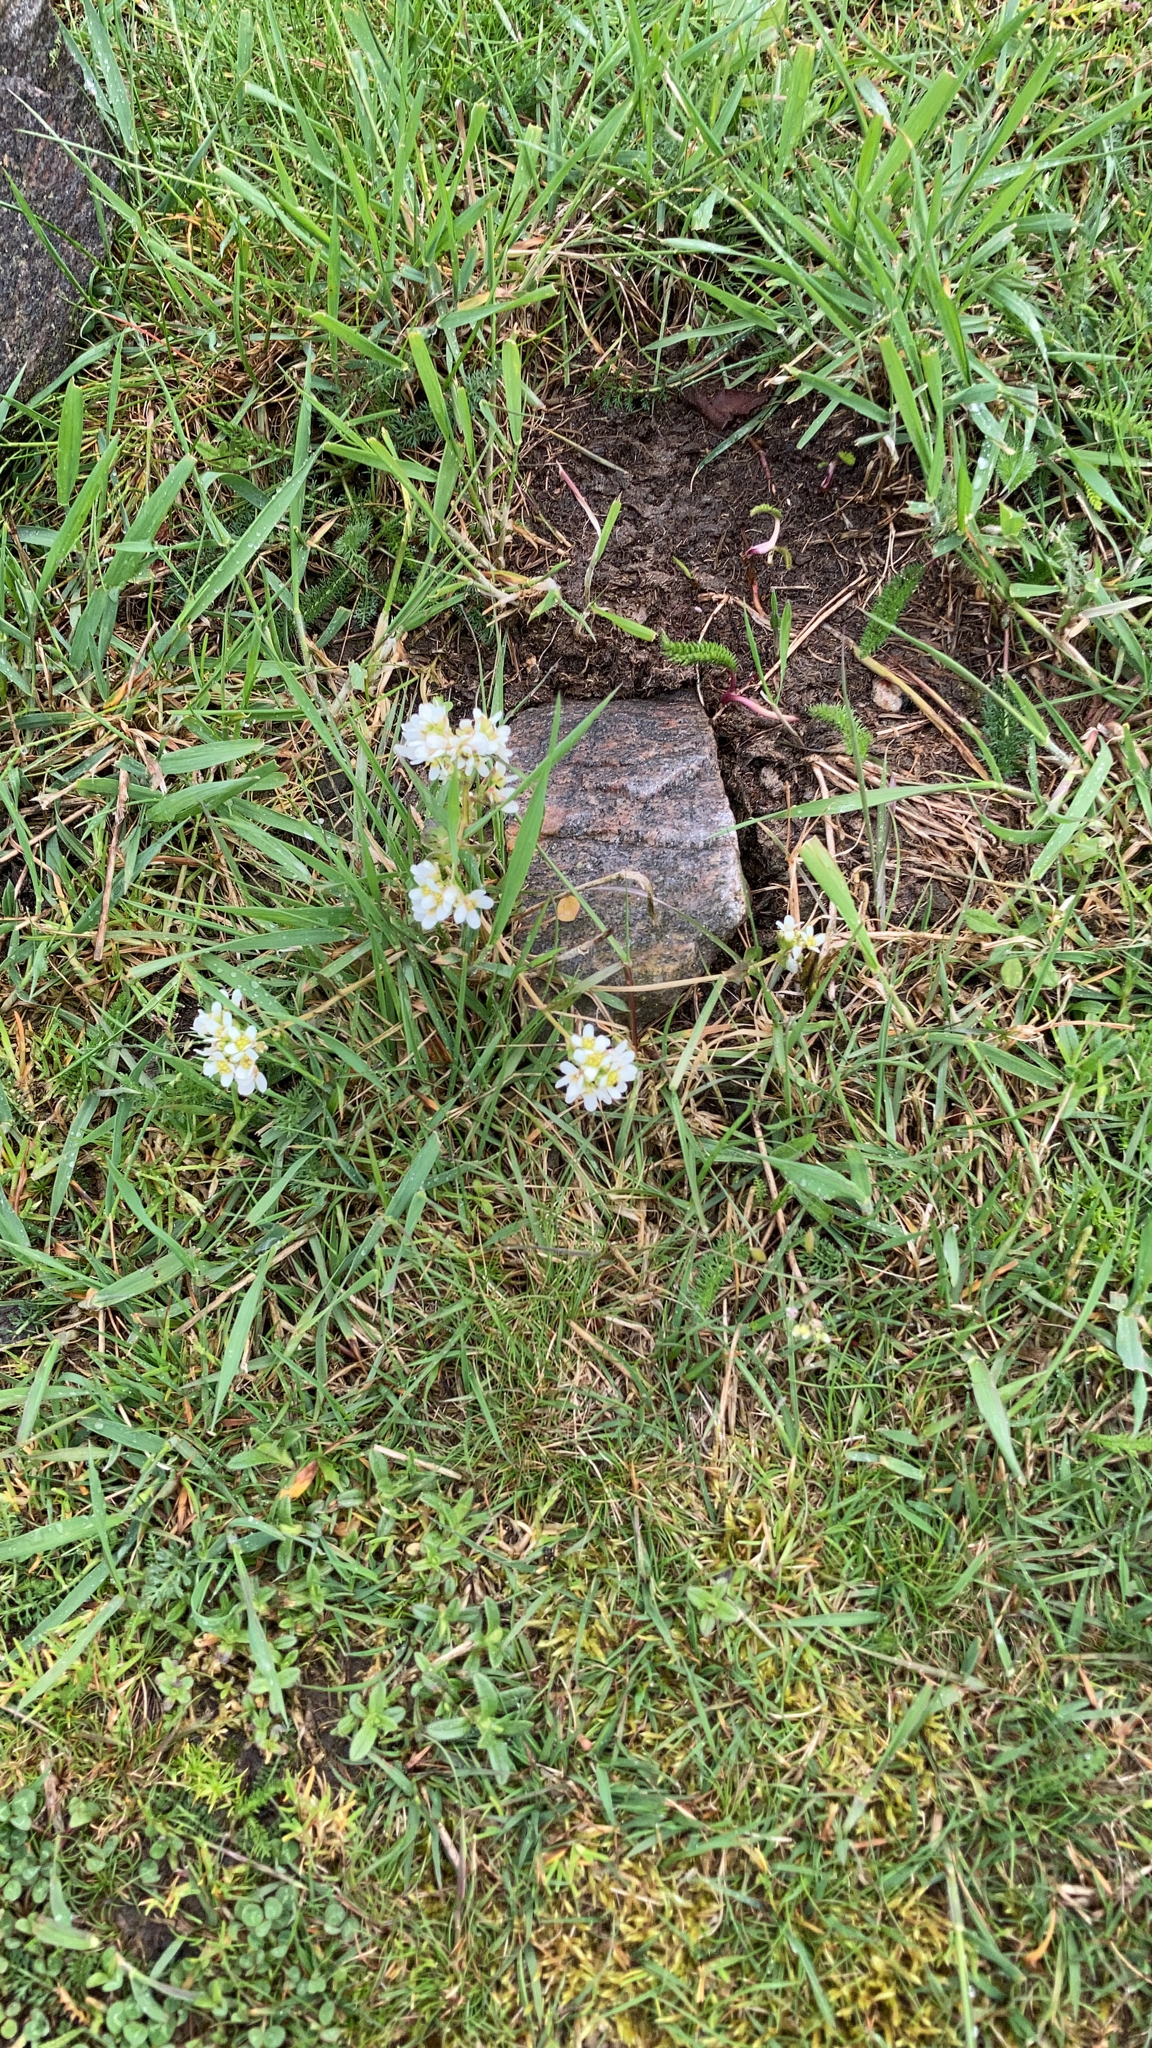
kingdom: Plantae
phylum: Tracheophyta
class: Magnoliopsida
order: Brassicales
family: Brassicaceae
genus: Berteroa
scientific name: Berteroa incana
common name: Hoary alison
